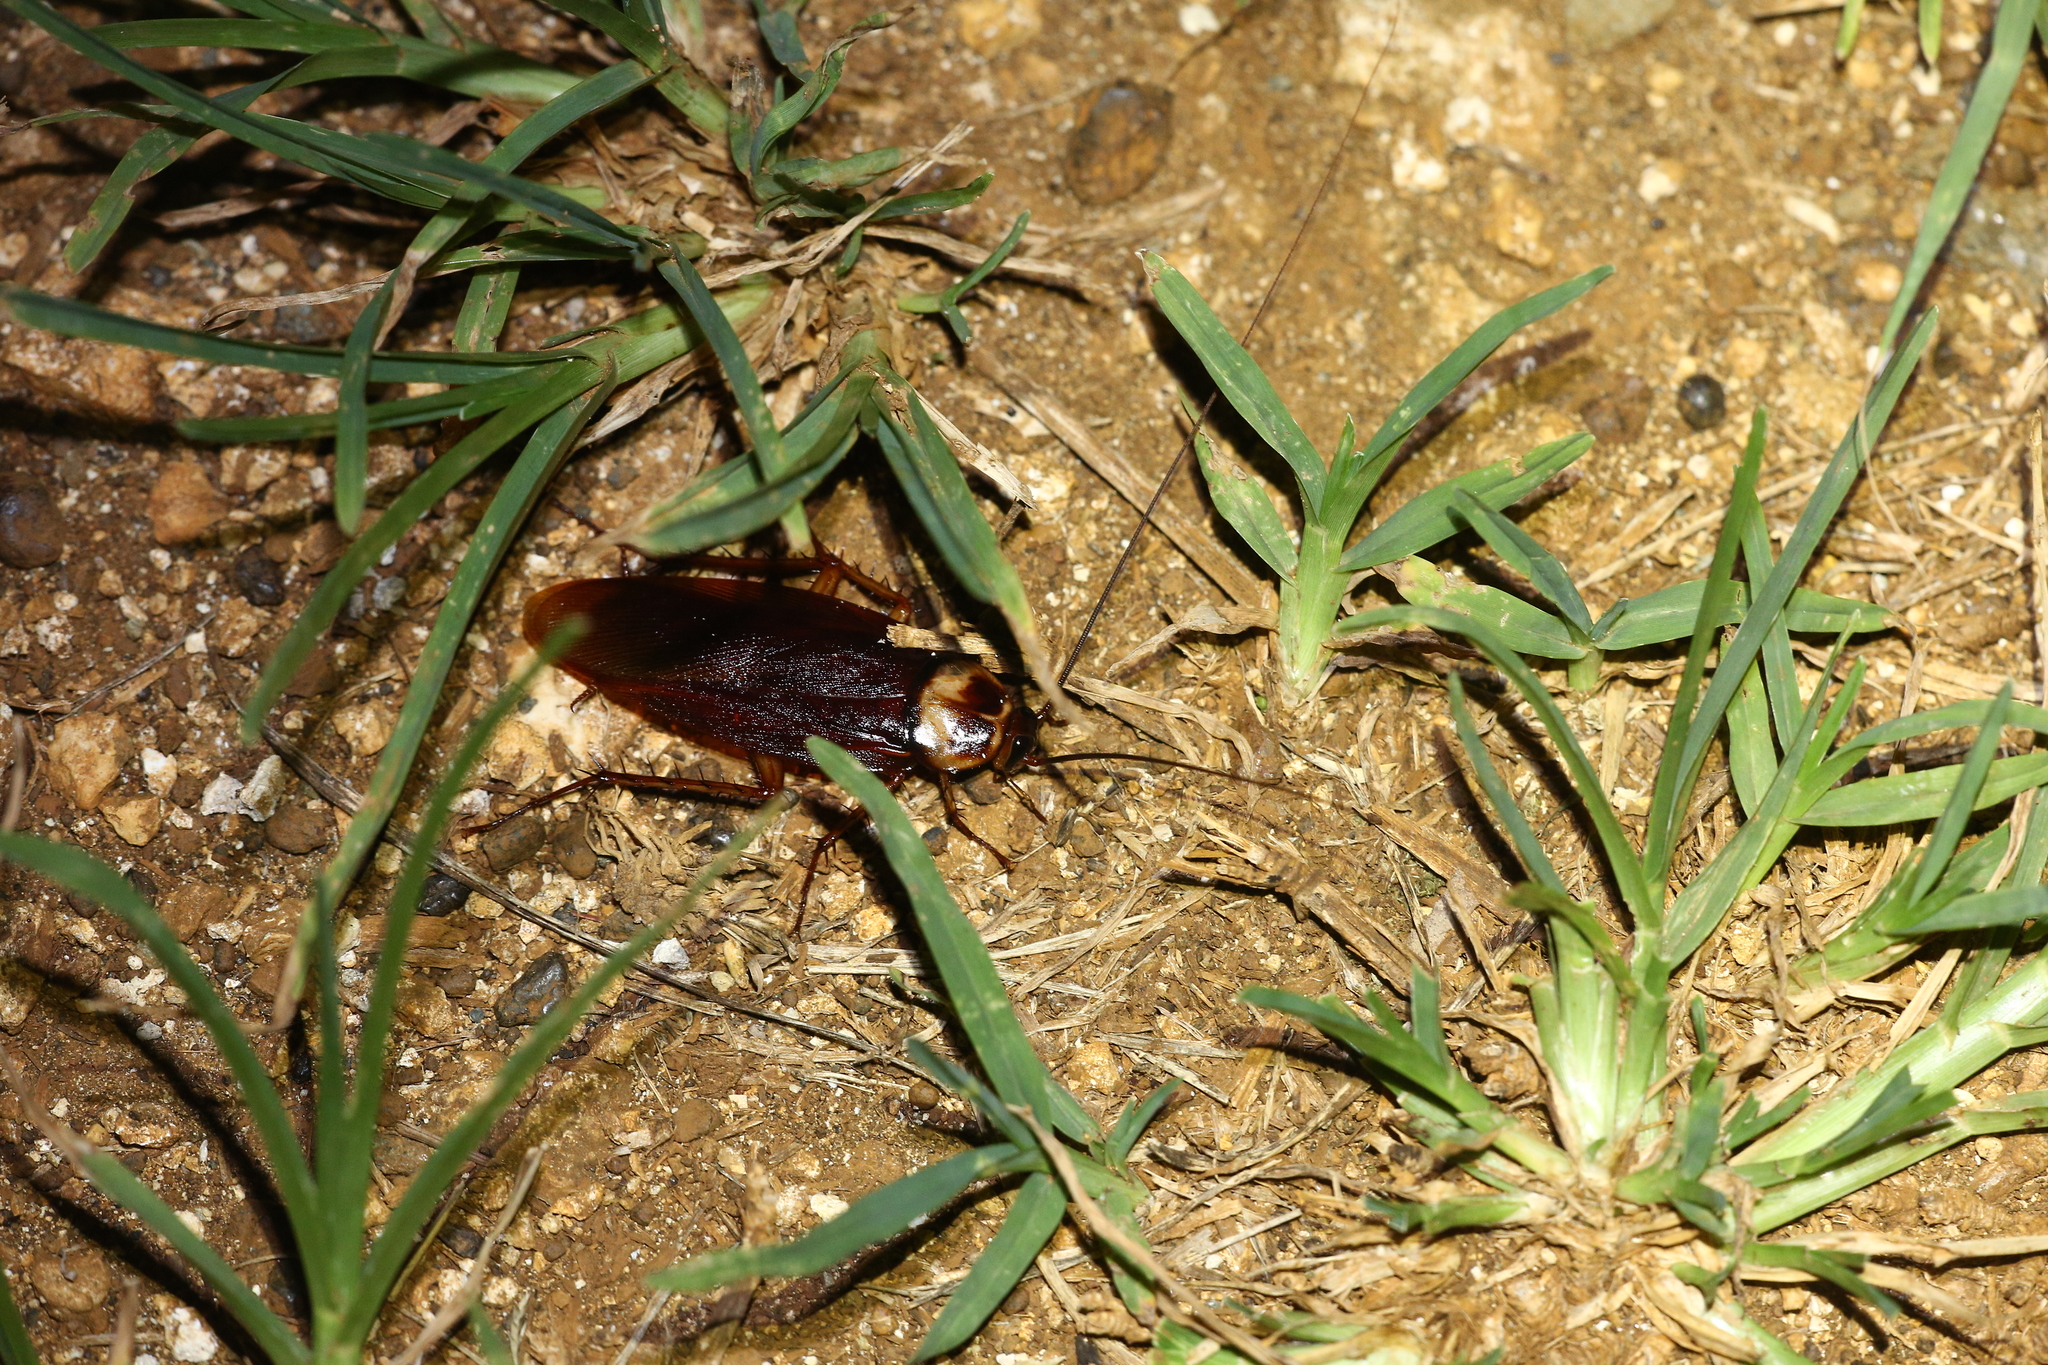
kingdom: Animalia
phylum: Arthropoda
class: Insecta
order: Blattodea
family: Blattidae
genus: Periplaneta
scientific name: Periplaneta americana
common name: American cockroach
